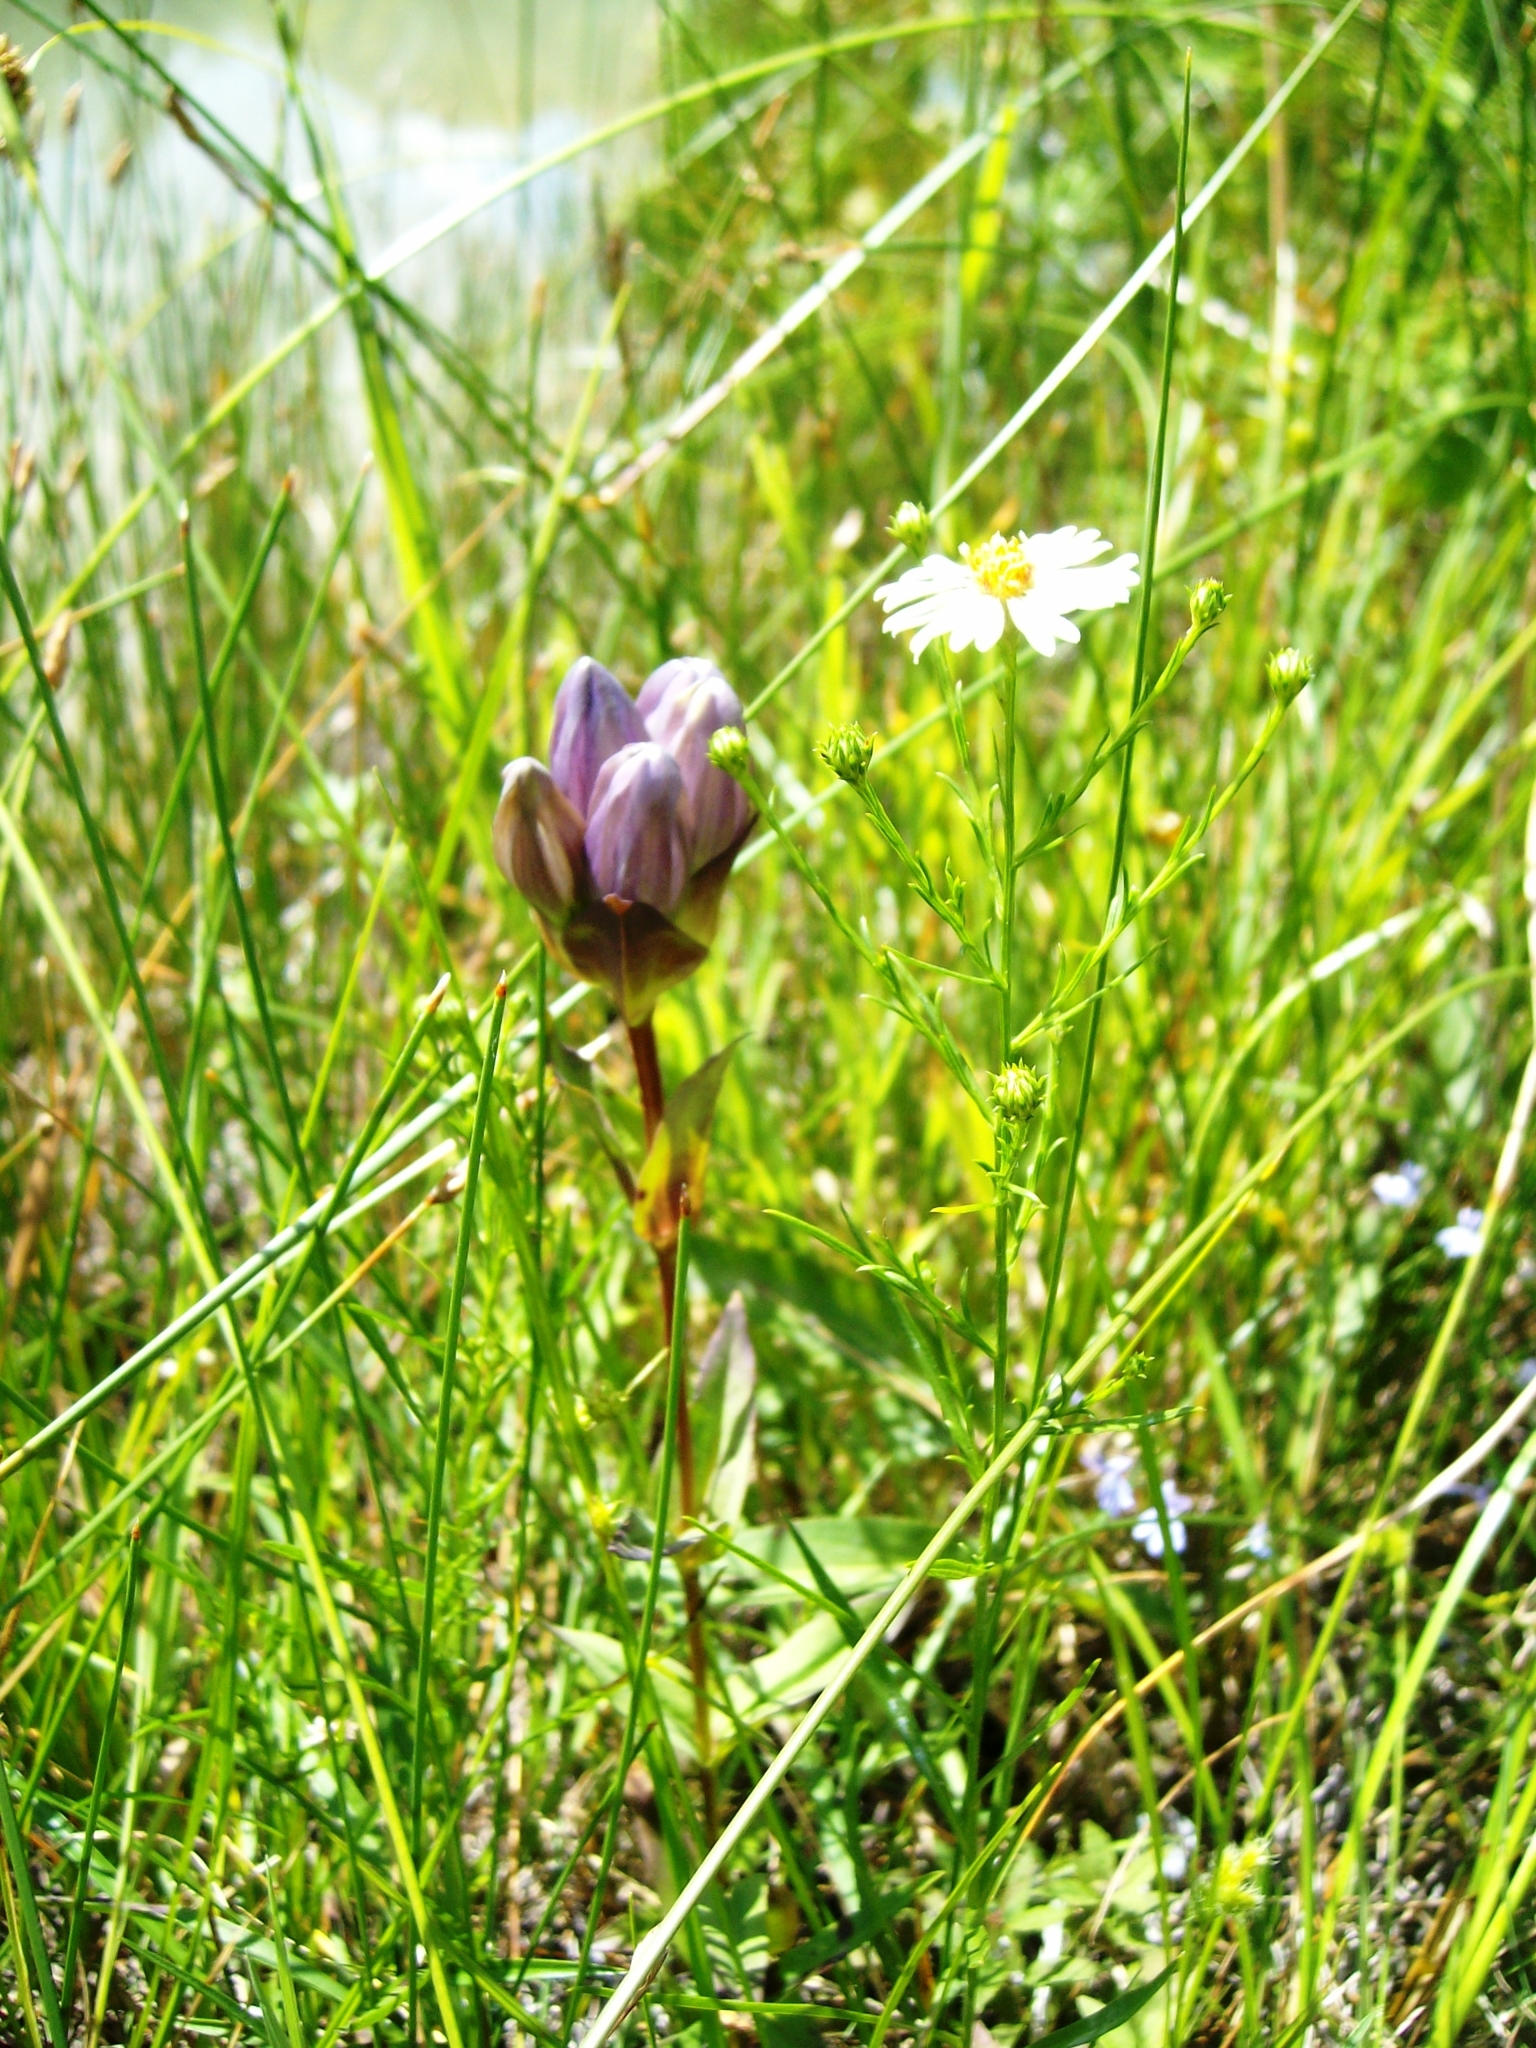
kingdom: Plantae
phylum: Tracheophyta
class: Magnoliopsida
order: Gentianales
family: Gentianaceae
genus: Gentiana
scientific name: Gentiana rubricaulis
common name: Purple-stemmed gentian
